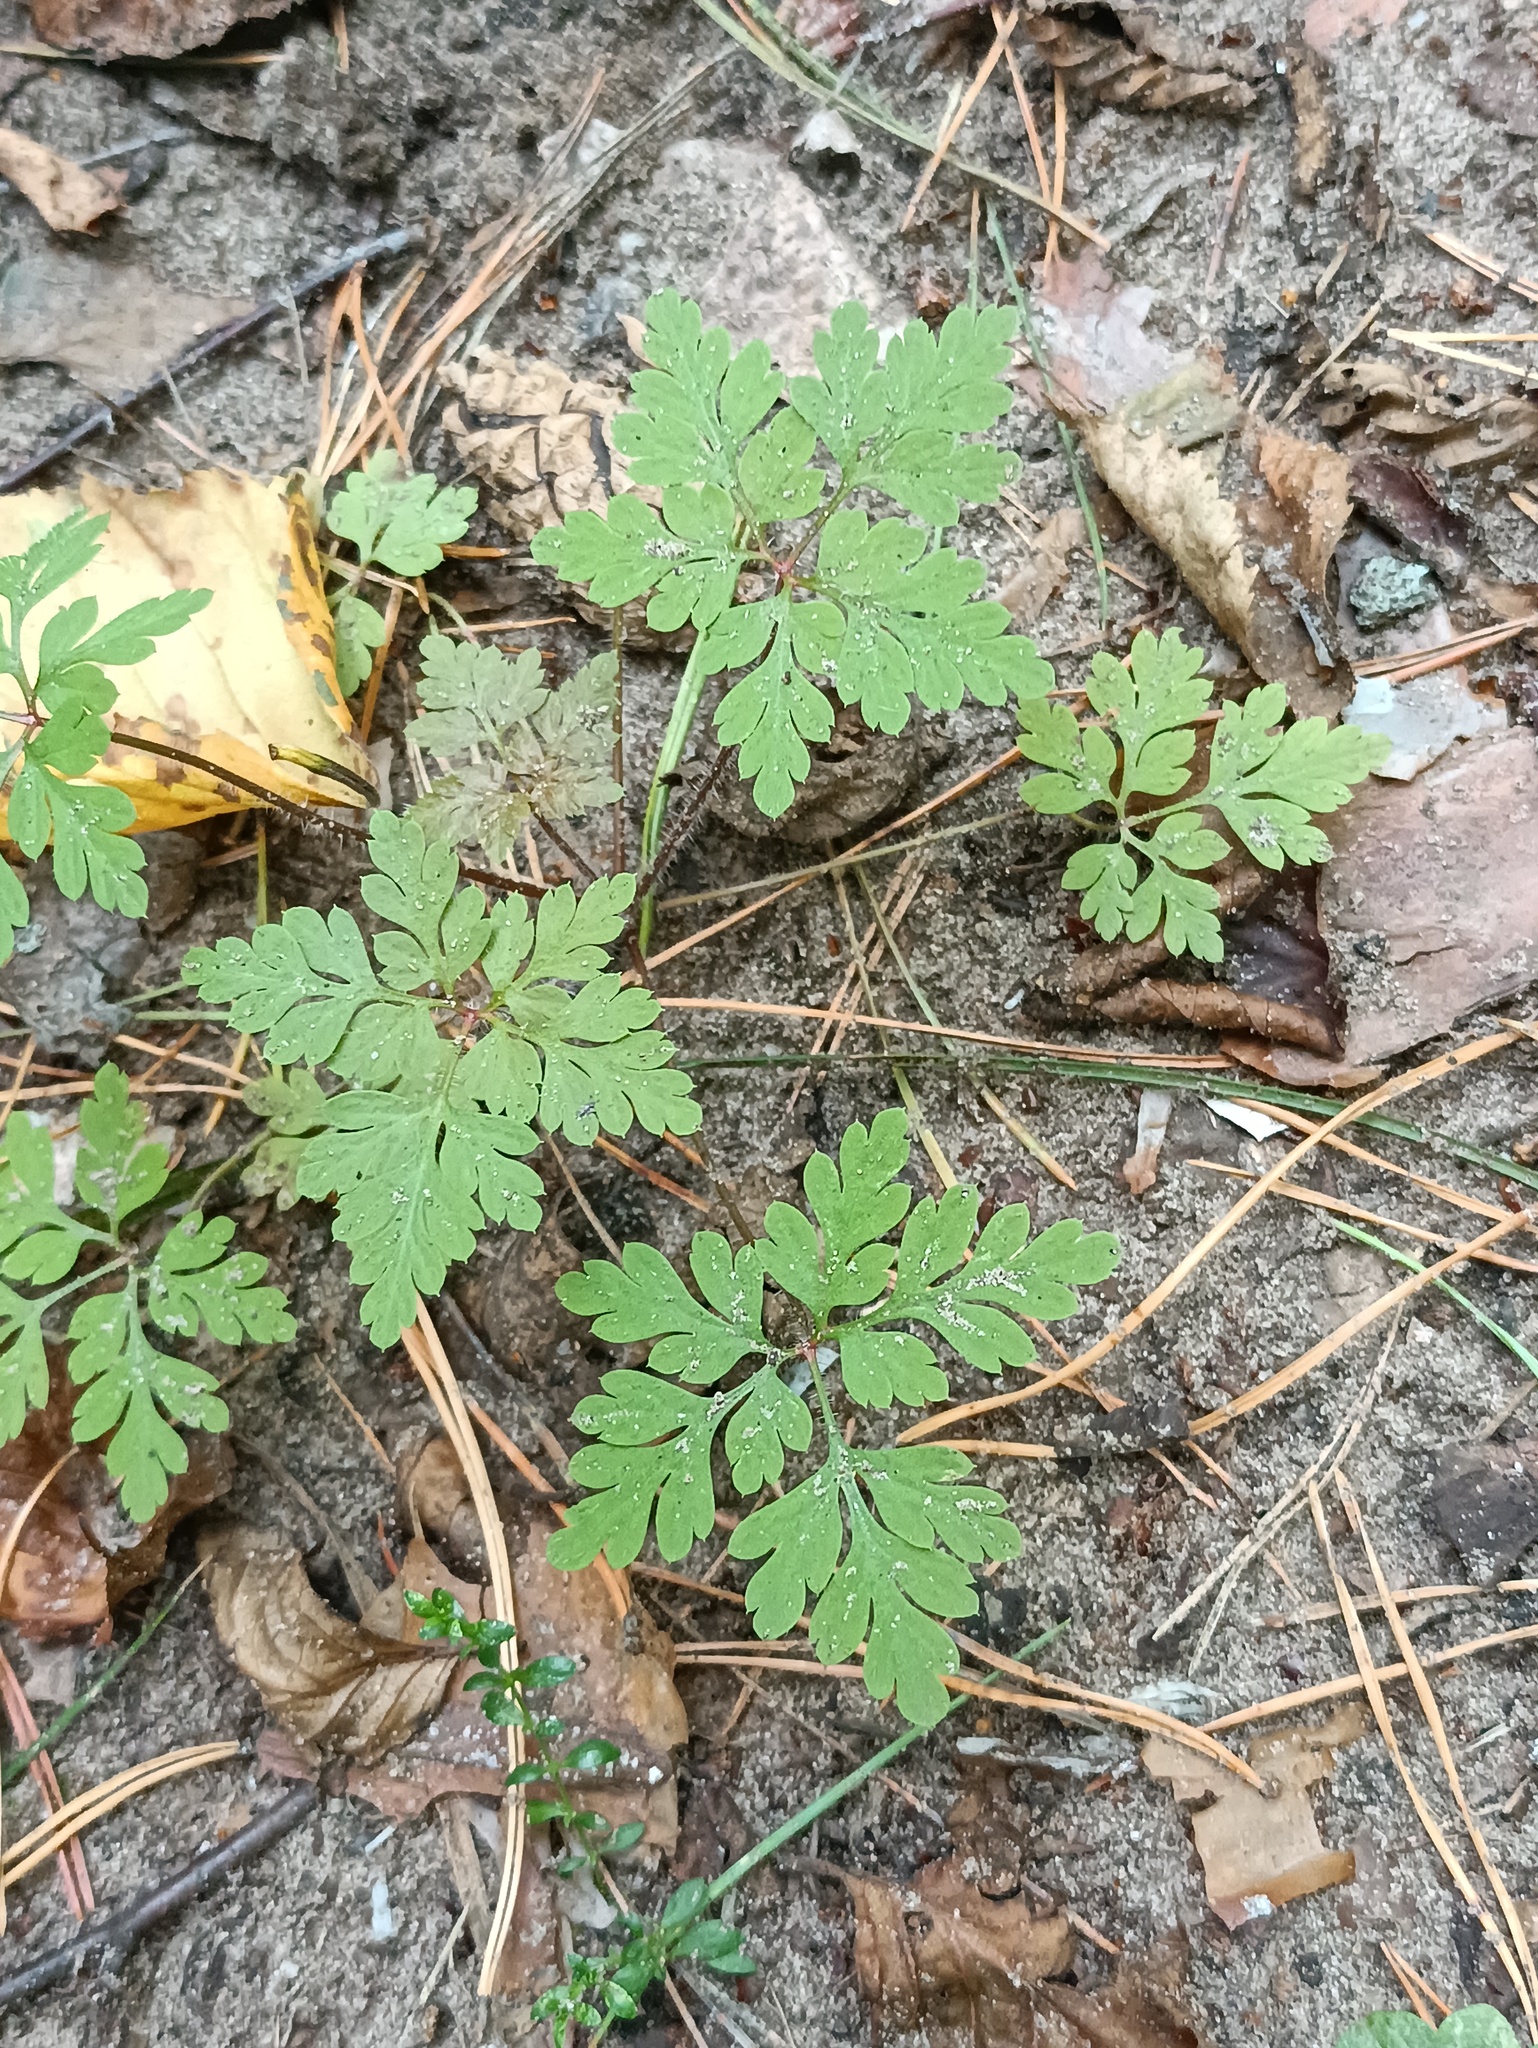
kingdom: Plantae
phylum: Tracheophyta
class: Magnoliopsida
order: Geraniales
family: Geraniaceae
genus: Geranium
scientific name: Geranium robertianum
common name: Herb-robert
